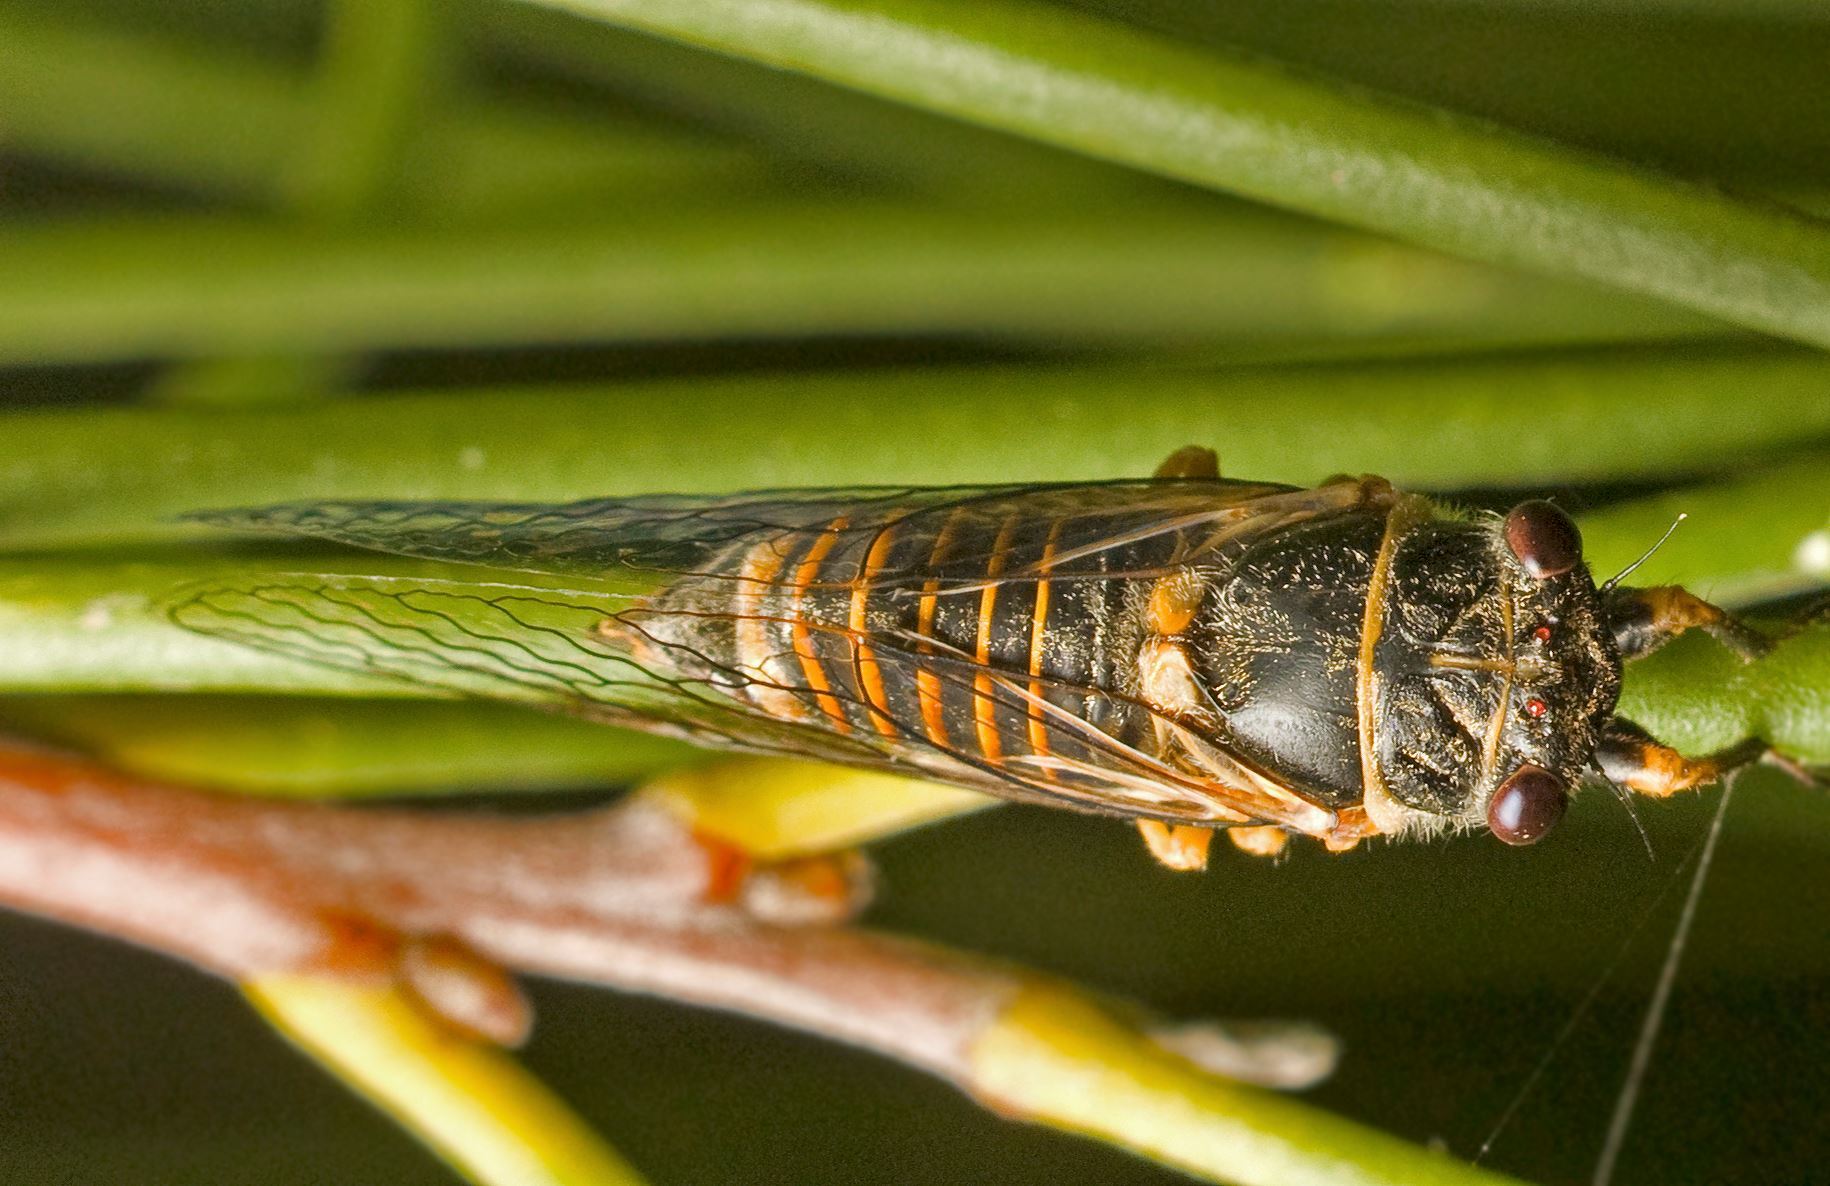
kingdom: Animalia
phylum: Arthropoda
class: Insecta
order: Hemiptera
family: Cicadidae
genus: Popplepsalta
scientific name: Popplepsalta ayrensis
